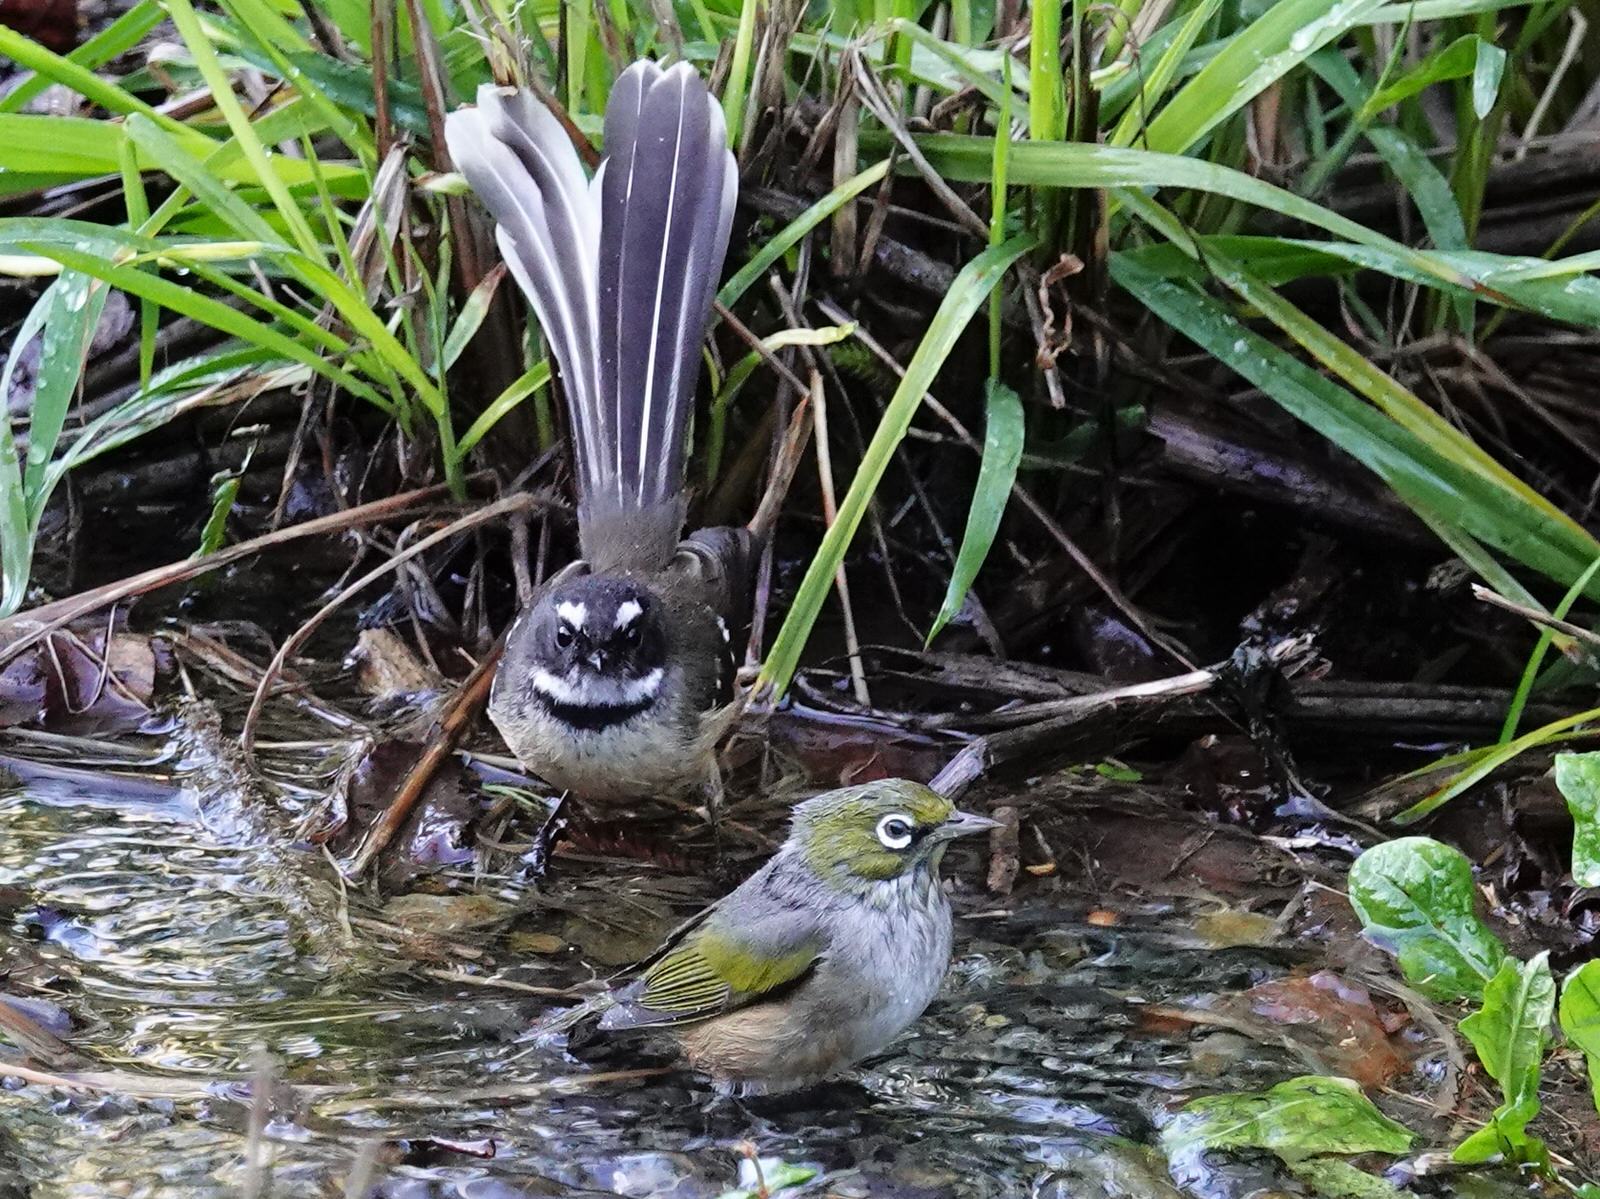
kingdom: Animalia
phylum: Chordata
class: Aves
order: Passeriformes
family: Zosteropidae
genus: Zosterops
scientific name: Zosterops lateralis
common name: Silvereye
